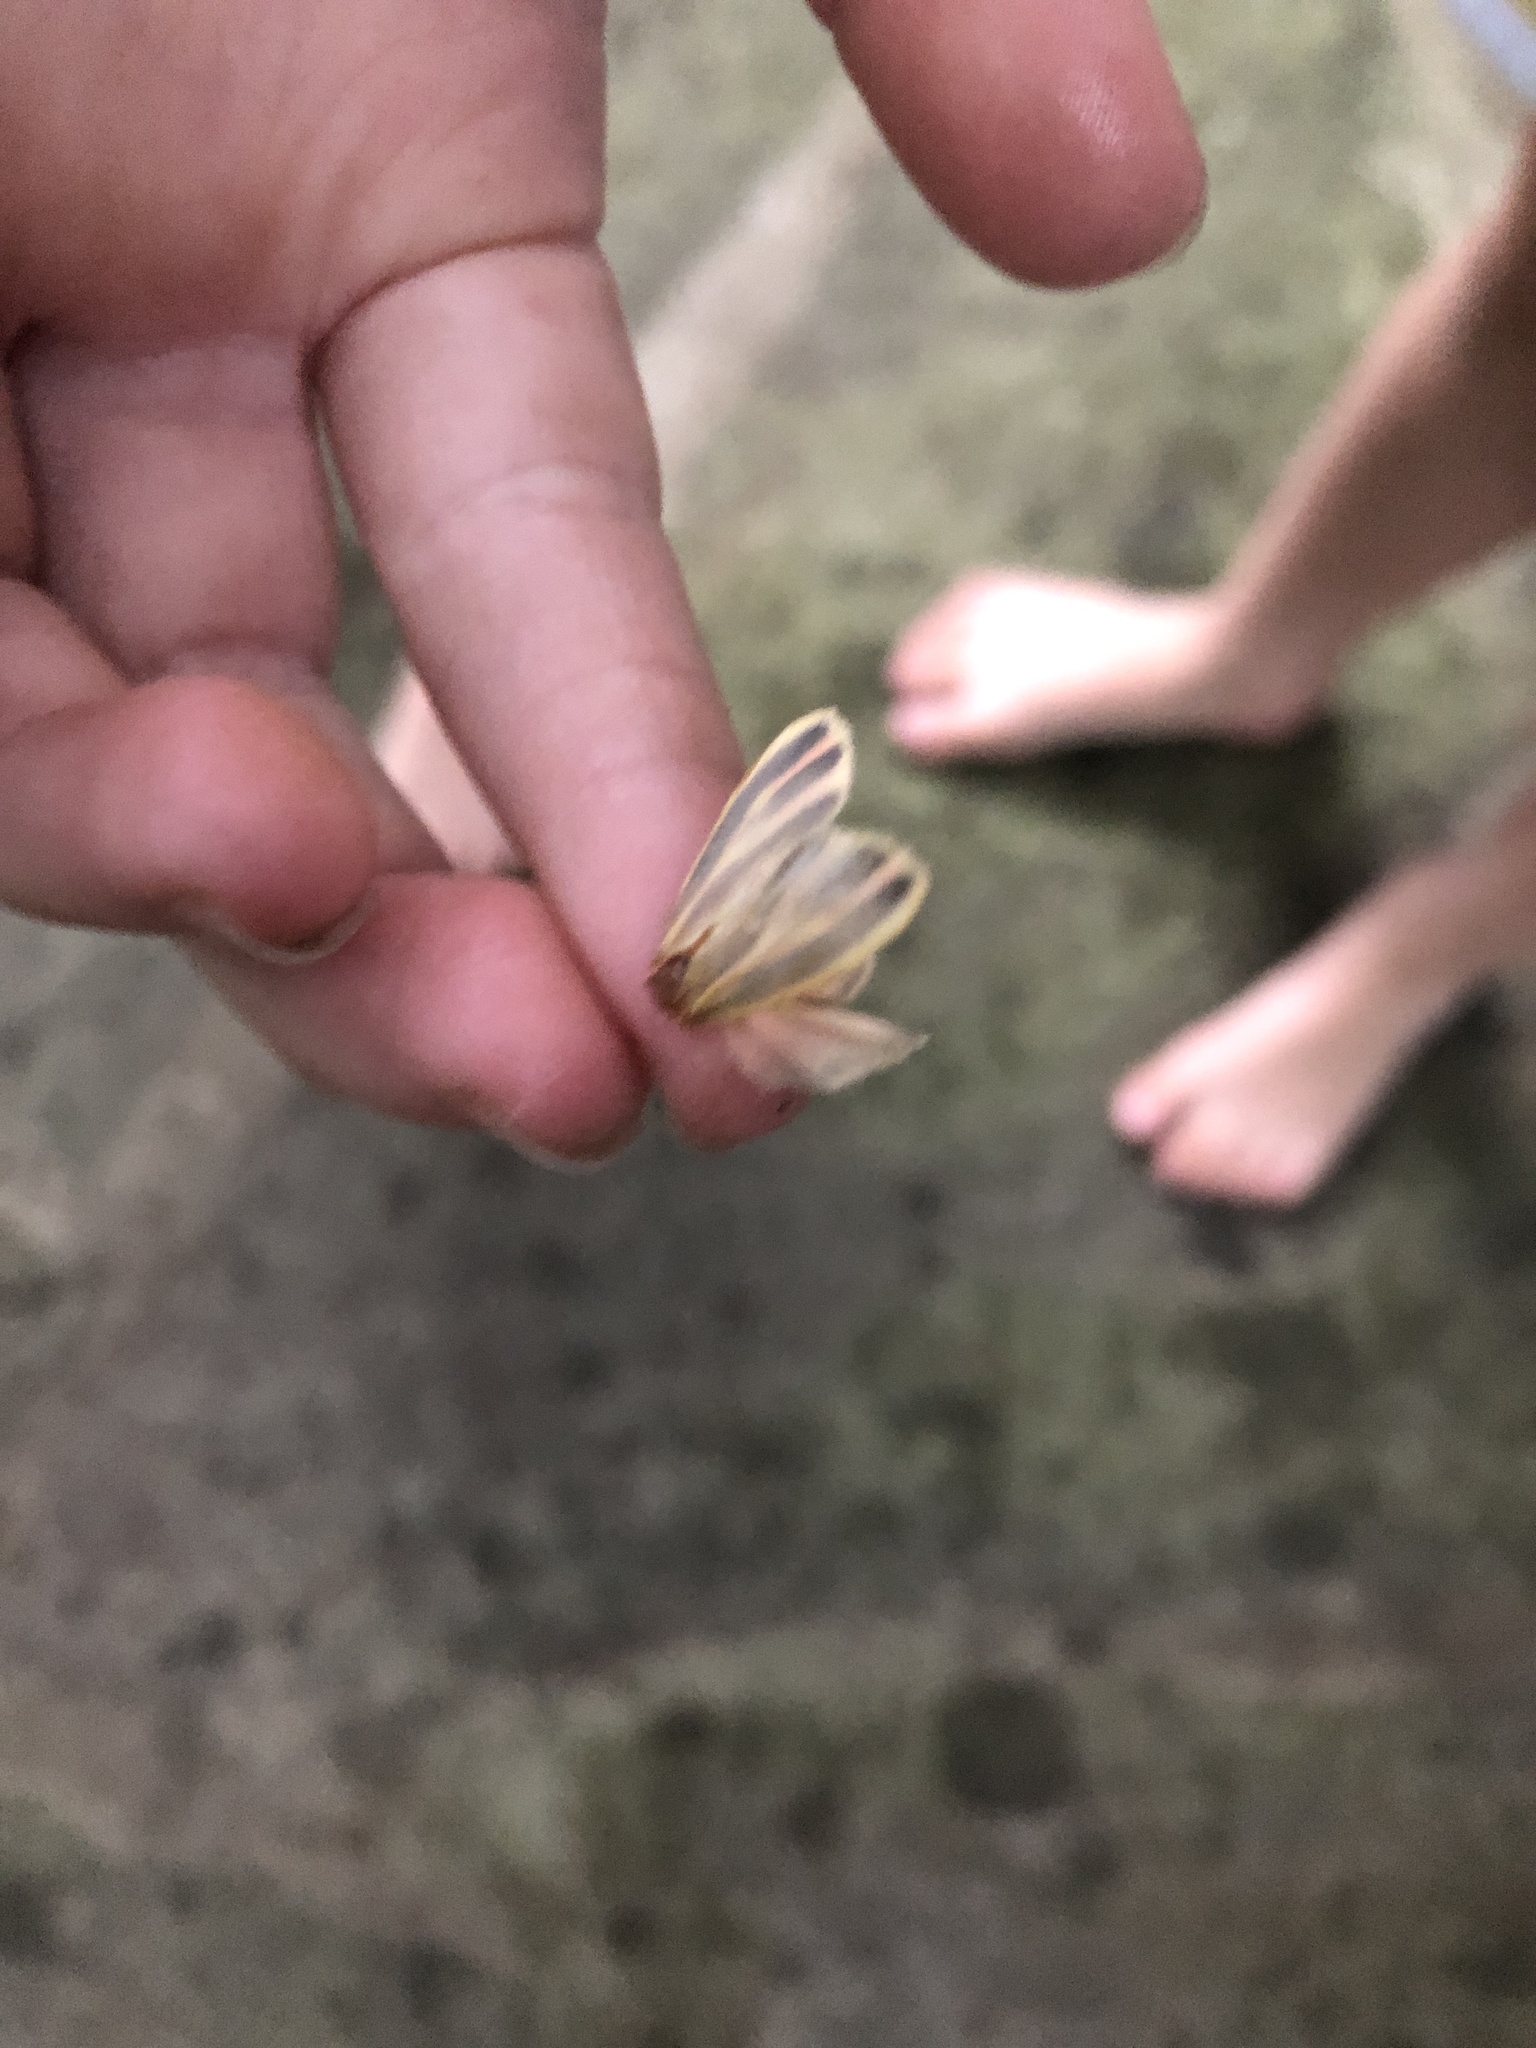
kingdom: Animalia
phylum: Arthropoda
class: Insecta
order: Lepidoptera
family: Erebidae
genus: Hypoprepia
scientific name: Hypoprepia fucosa
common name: Painted lichen moth
